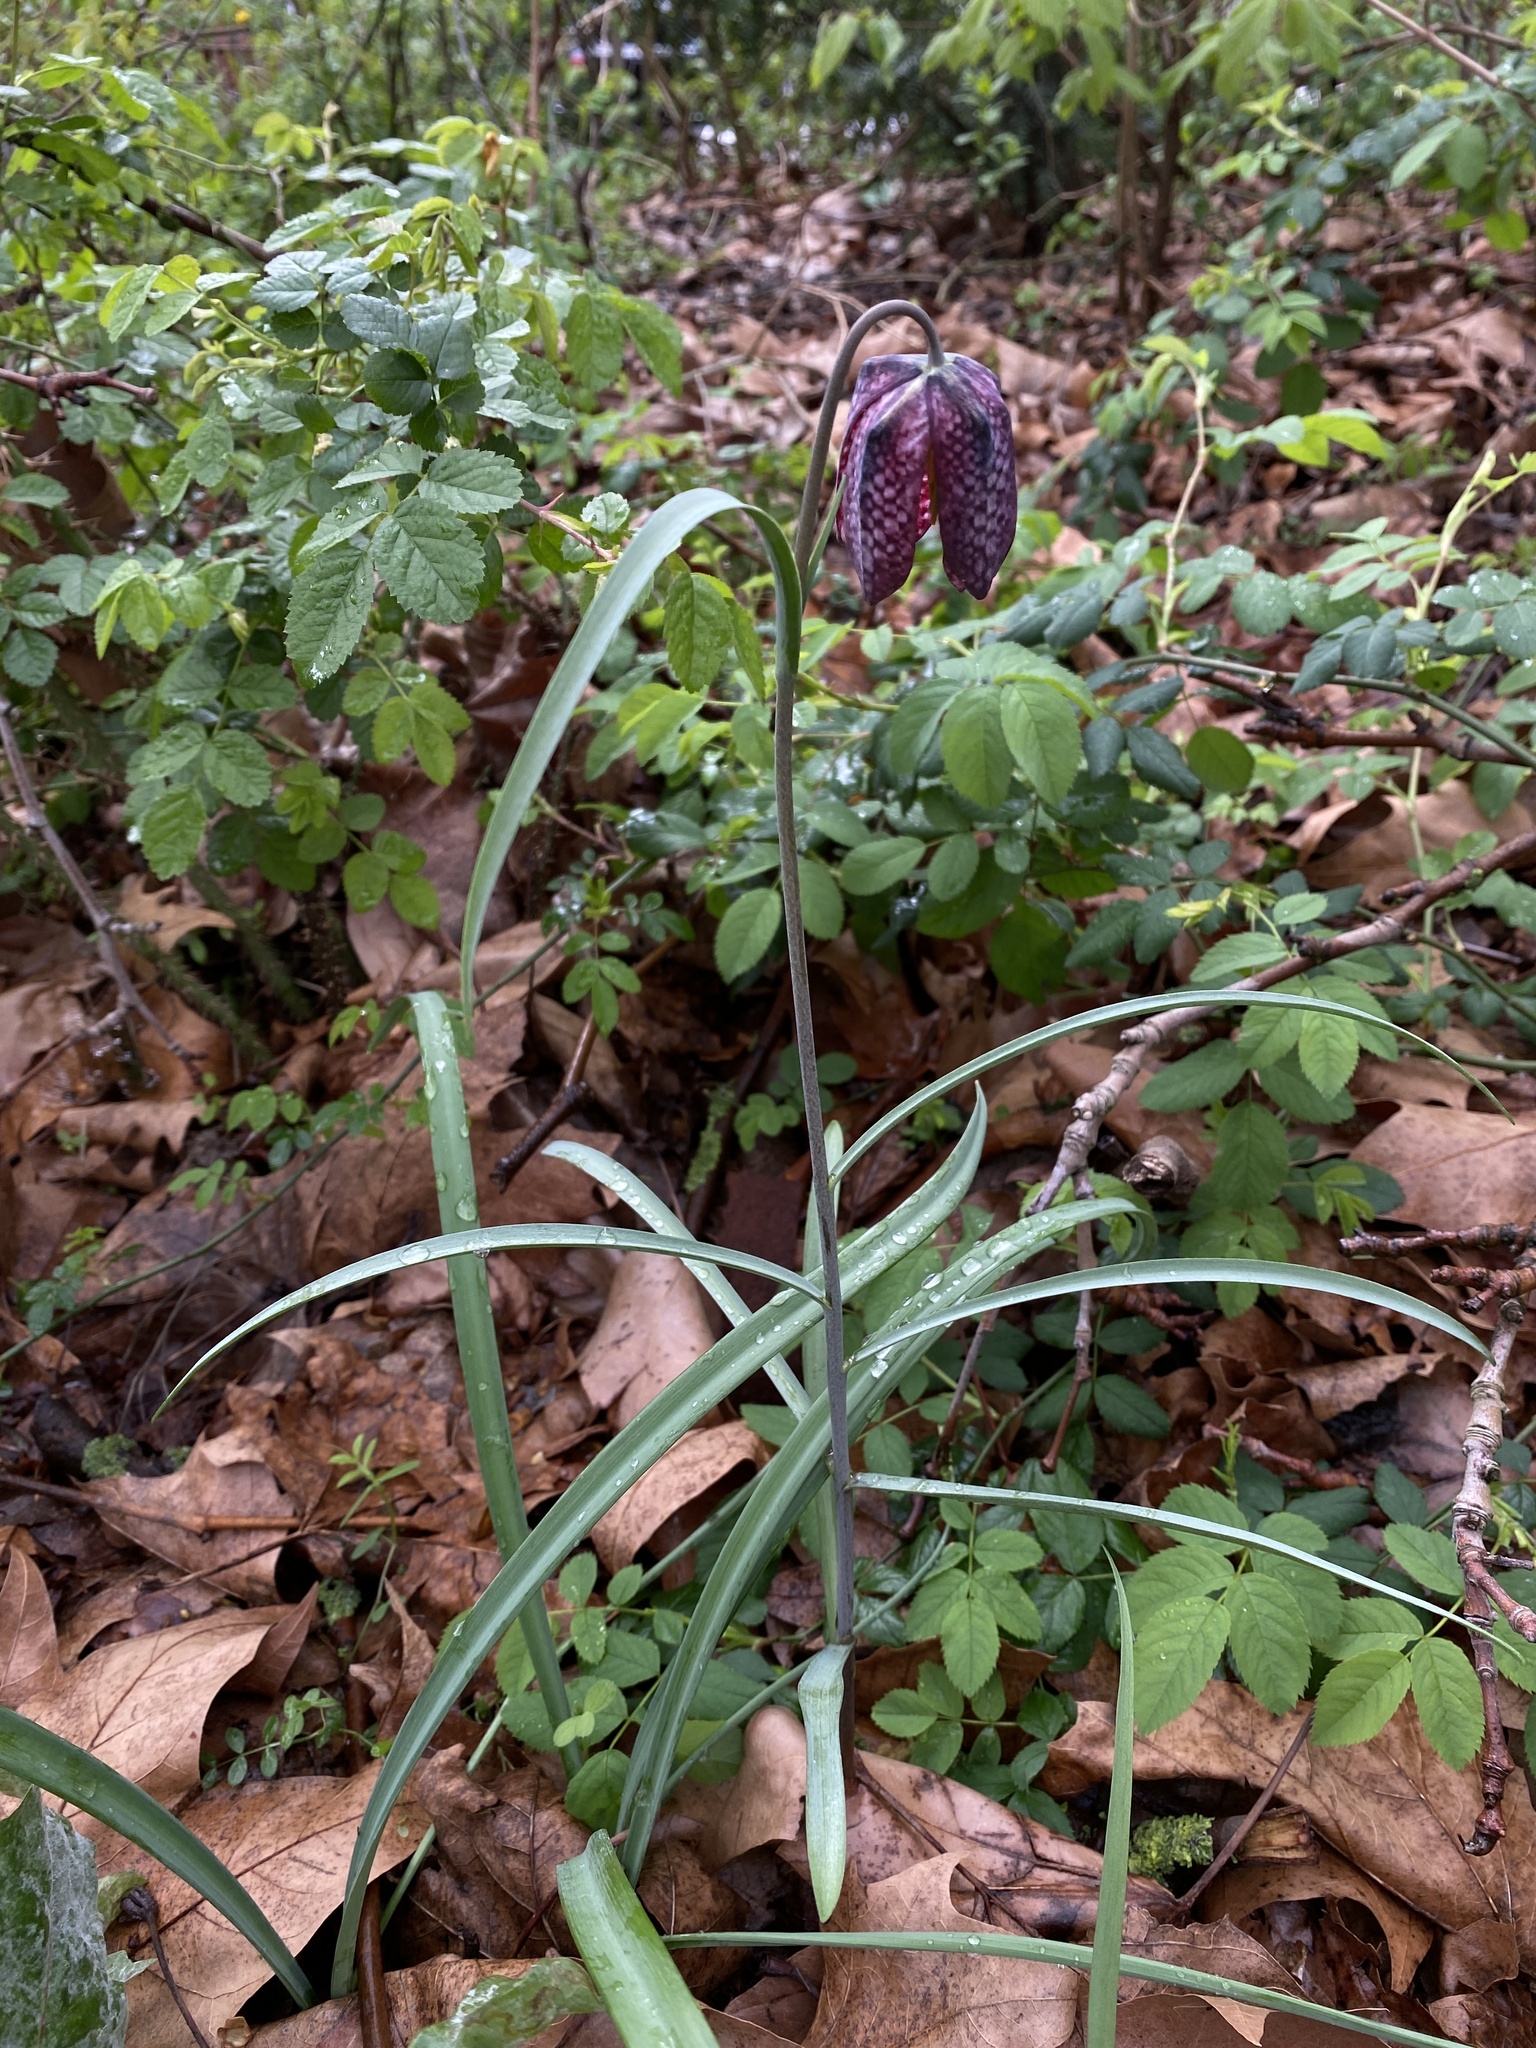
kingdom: Plantae
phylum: Tracheophyta
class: Liliopsida
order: Liliales
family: Liliaceae
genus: Fritillaria
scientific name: Fritillaria meleagris
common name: Fritillary
